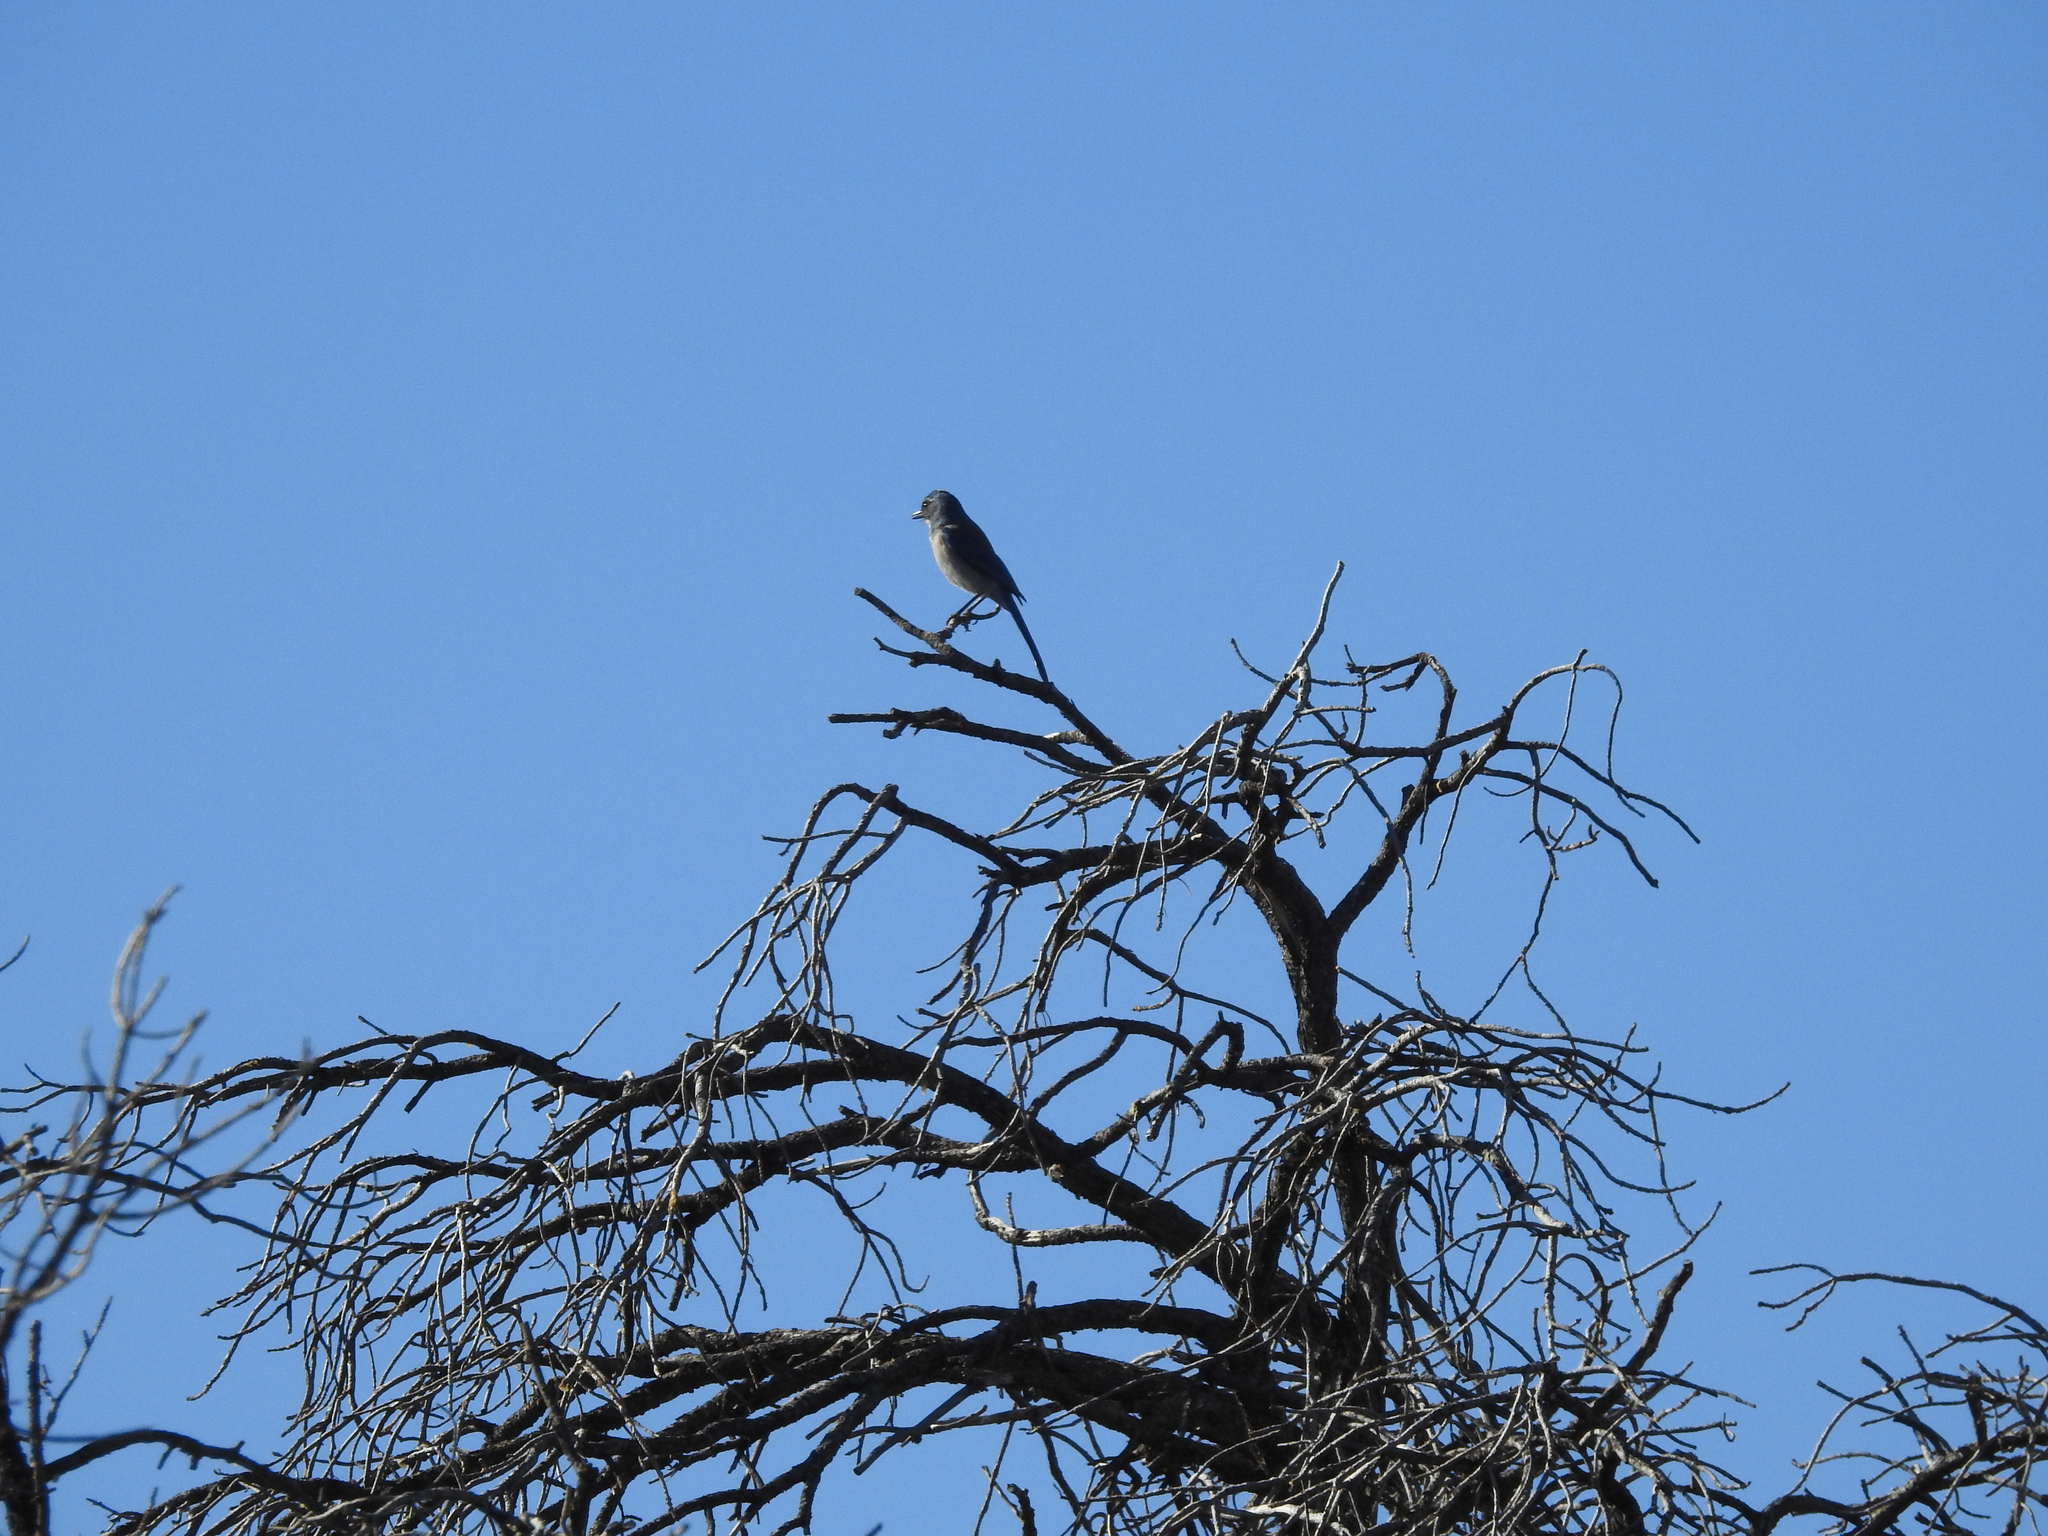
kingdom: Animalia
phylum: Chordata
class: Aves
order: Passeriformes
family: Corvidae
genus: Aphelocoma
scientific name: Aphelocoma woodhouseii
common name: Woodhouse's scrub-jay
